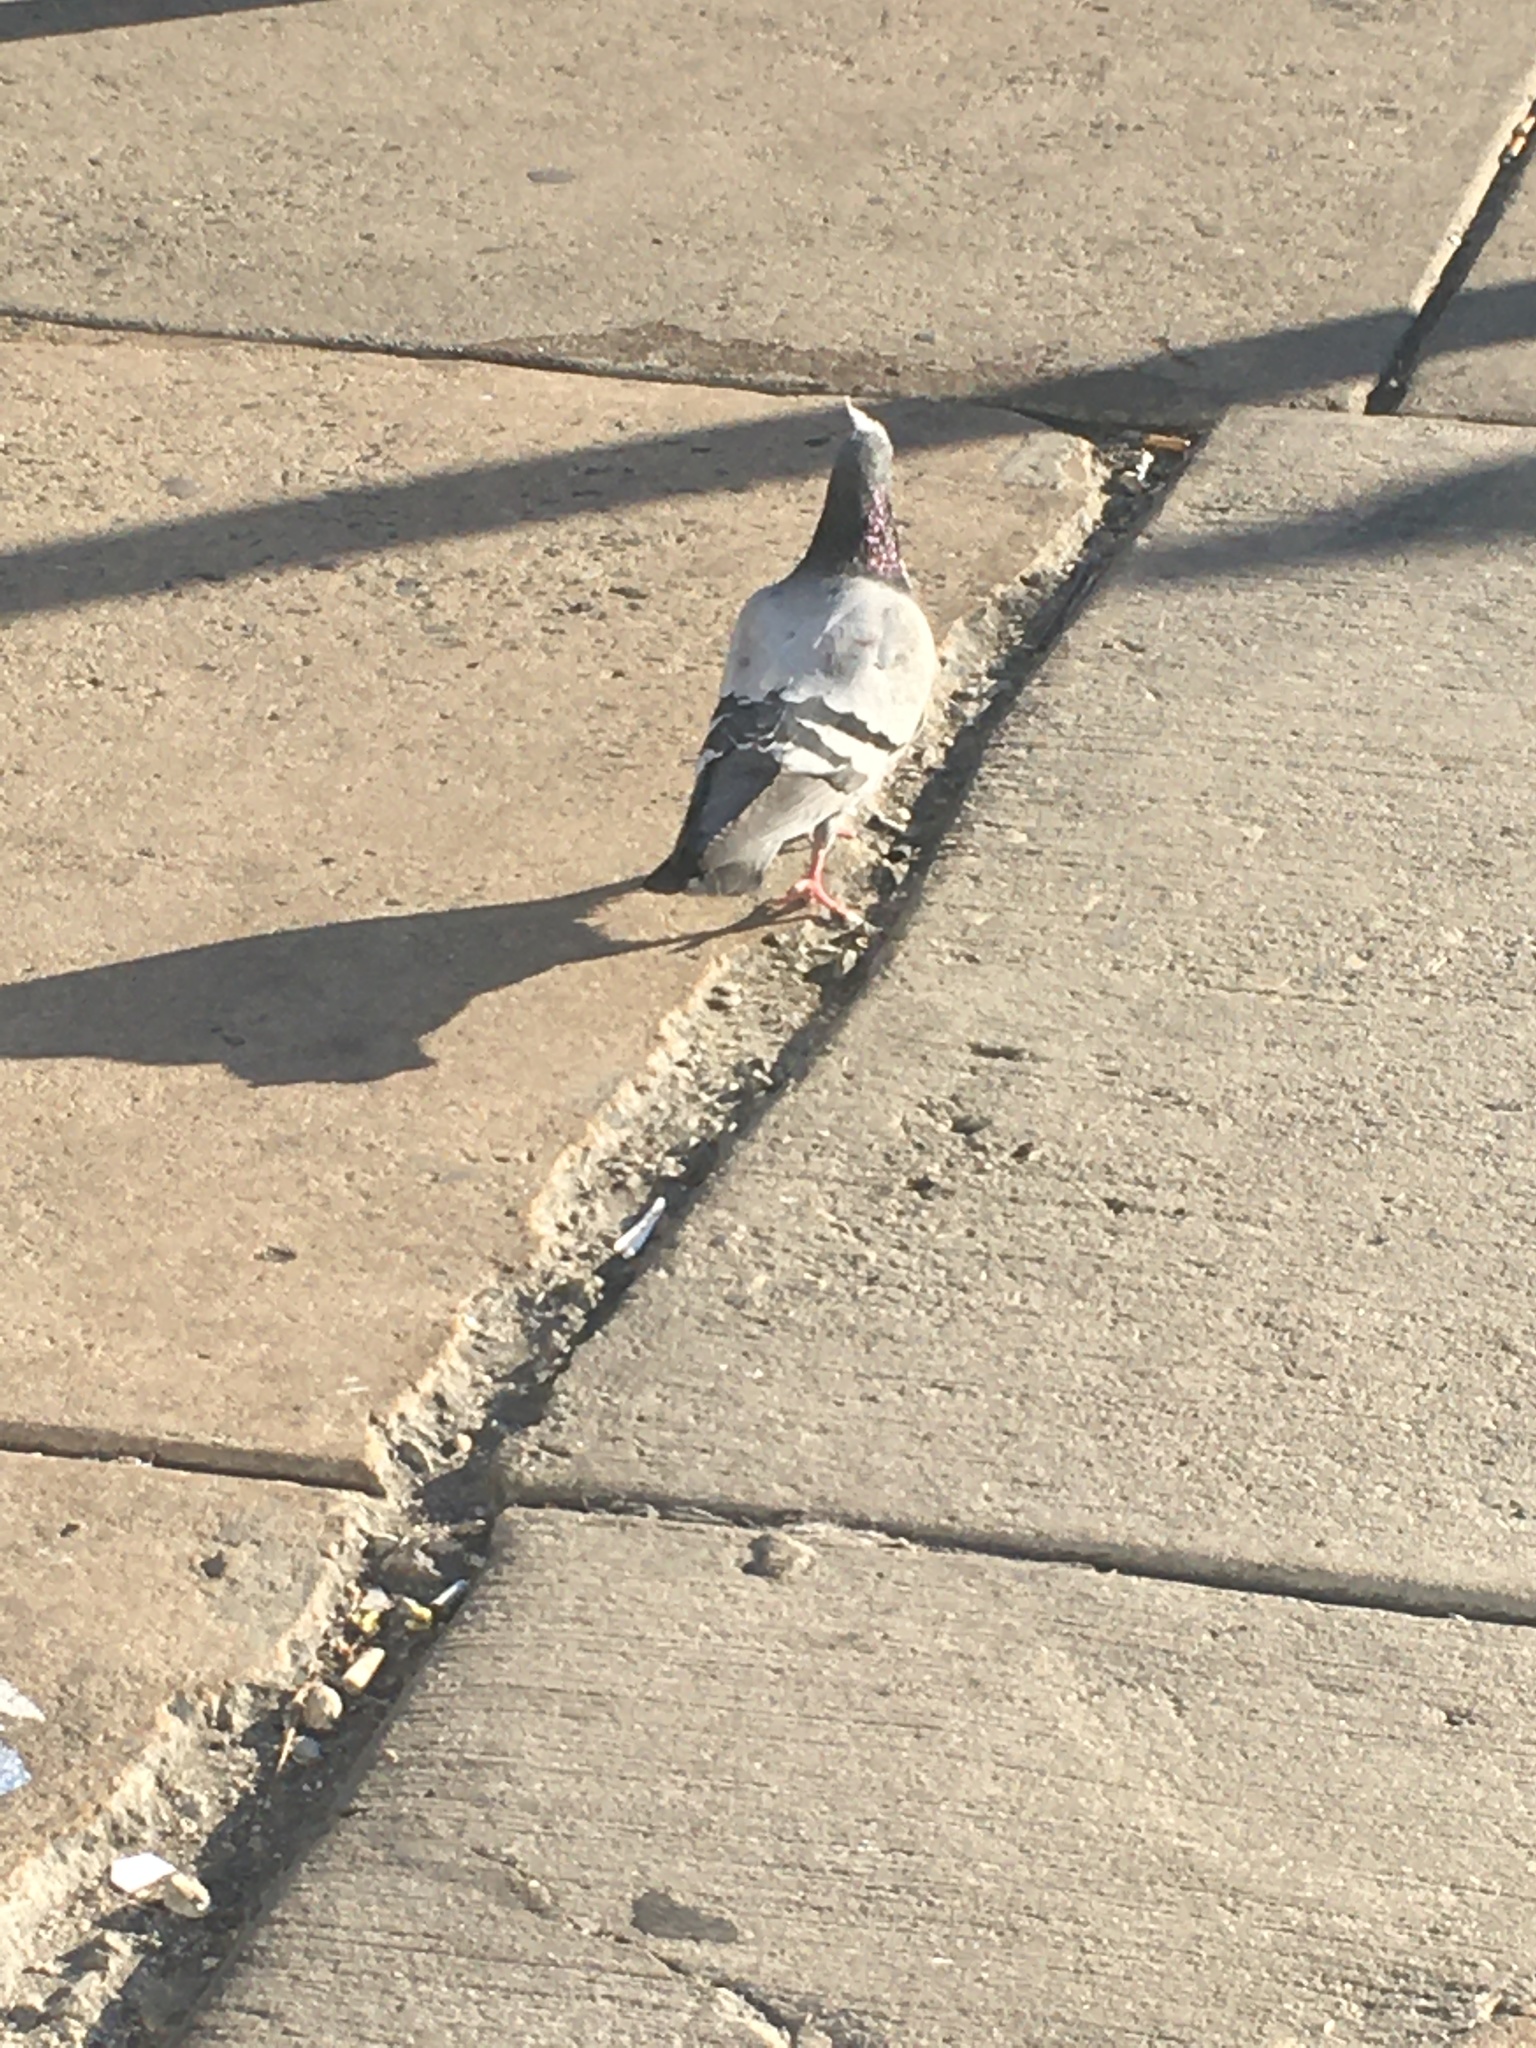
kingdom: Animalia
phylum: Chordata
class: Aves
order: Columbiformes
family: Columbidae
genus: Columba
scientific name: Columba livia
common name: Rock pigeon
